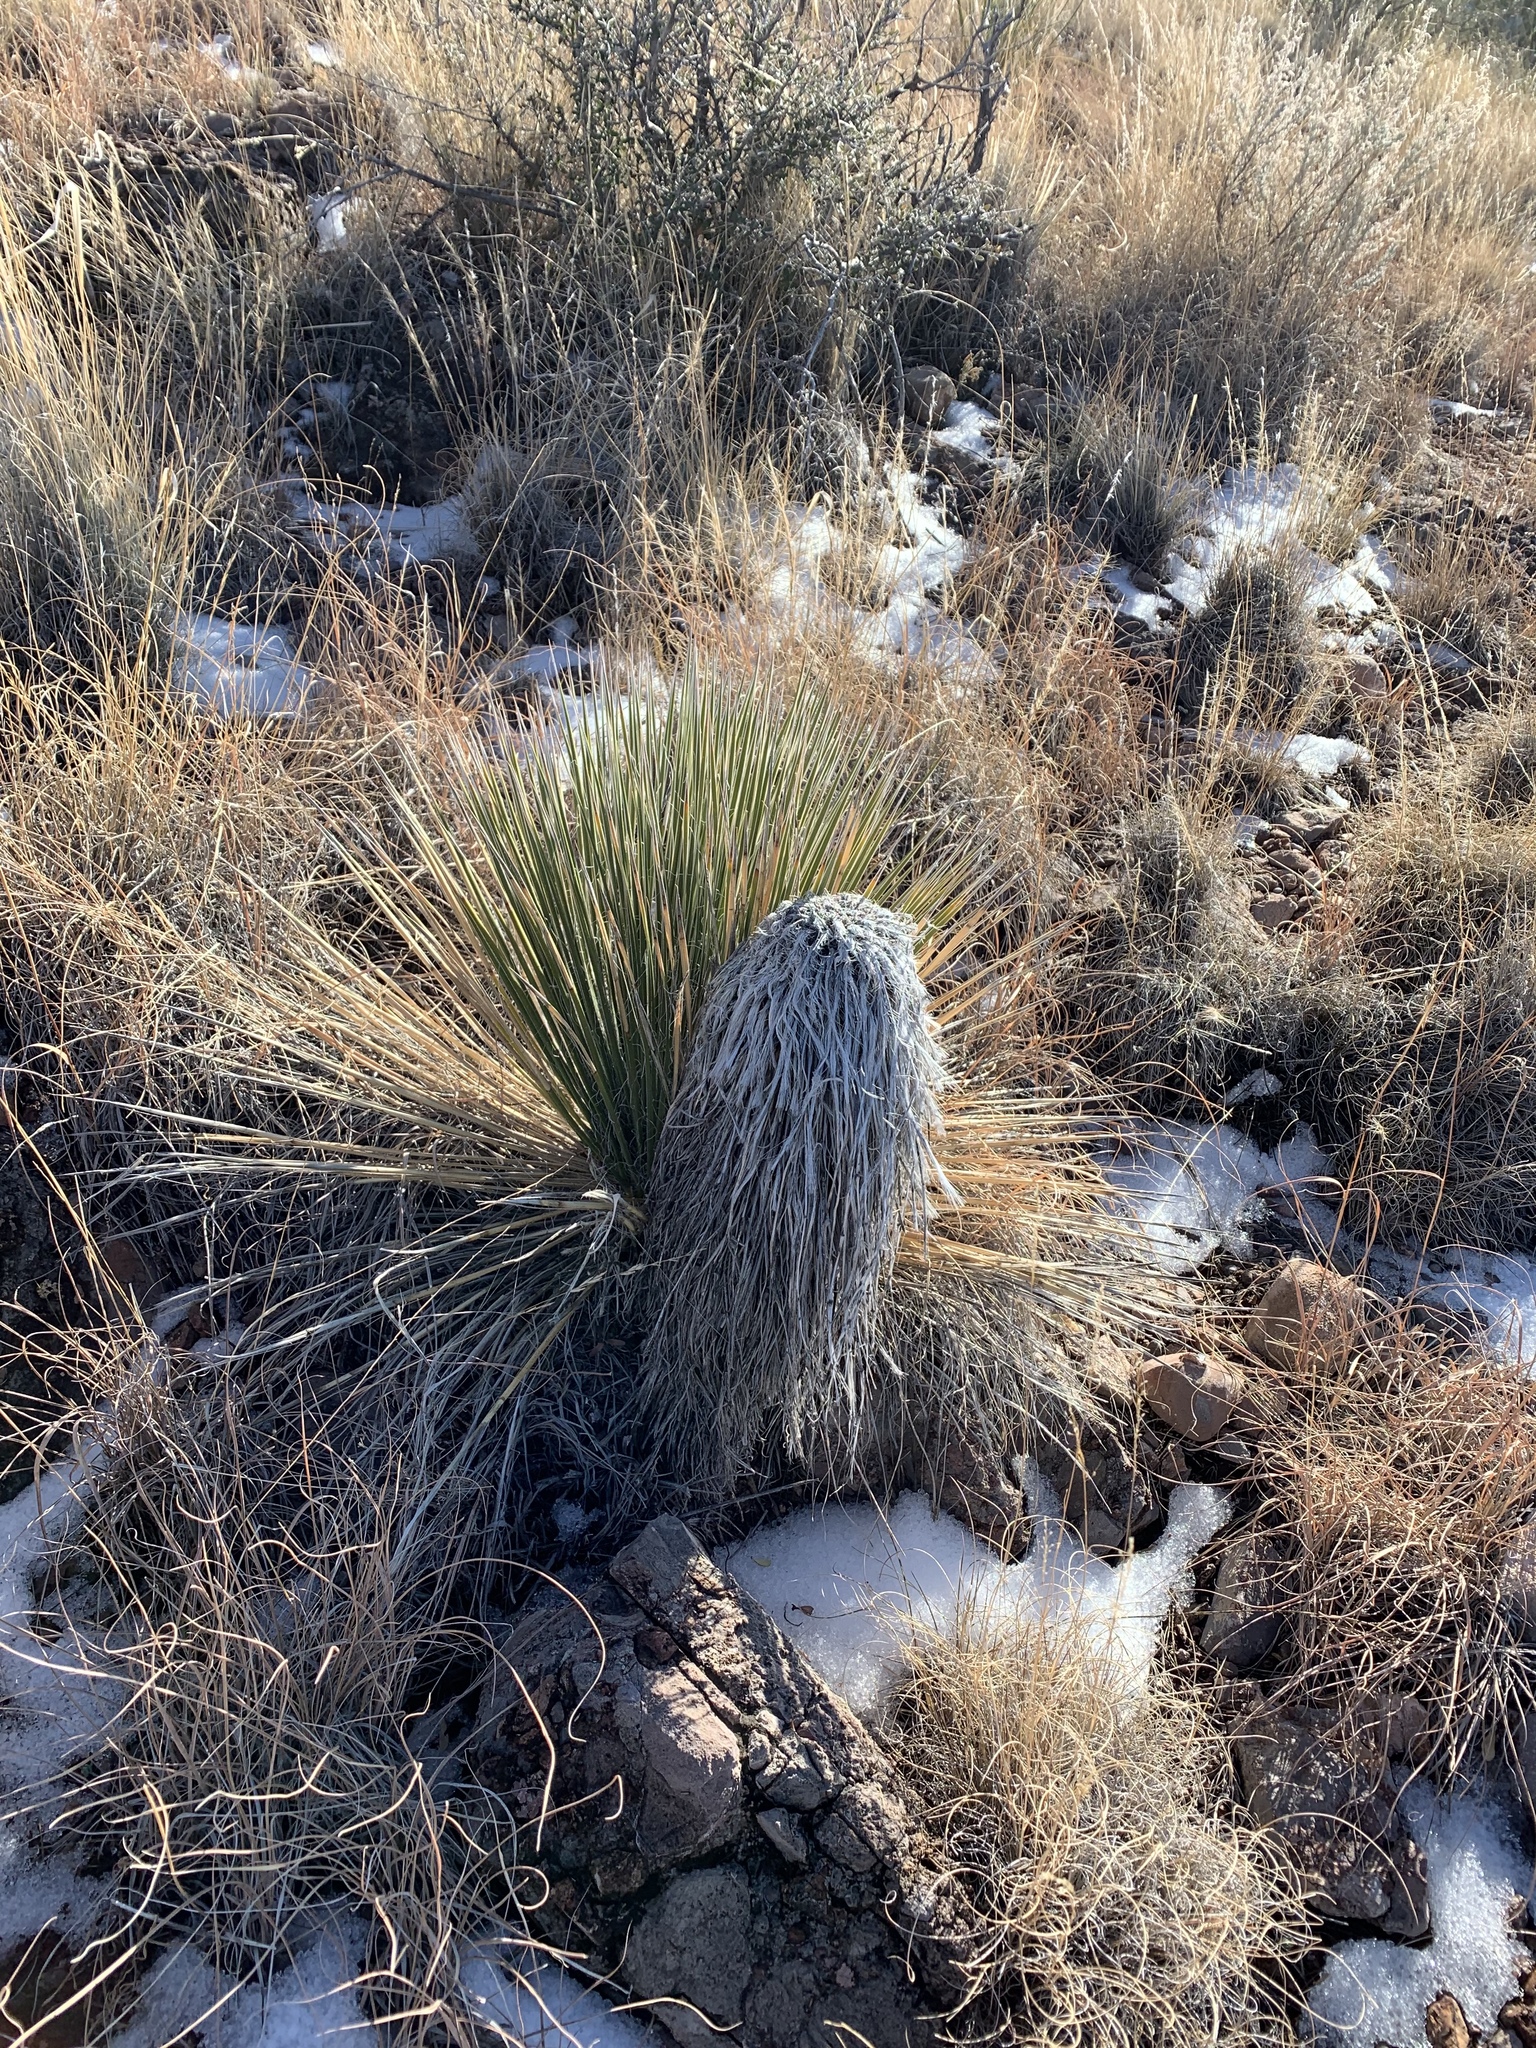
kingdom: Plantae
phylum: Tracheophyta
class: Liliopsida
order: Asparagales
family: Asparagaceae
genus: Yucca
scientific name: Yucca elata
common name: Palmella
